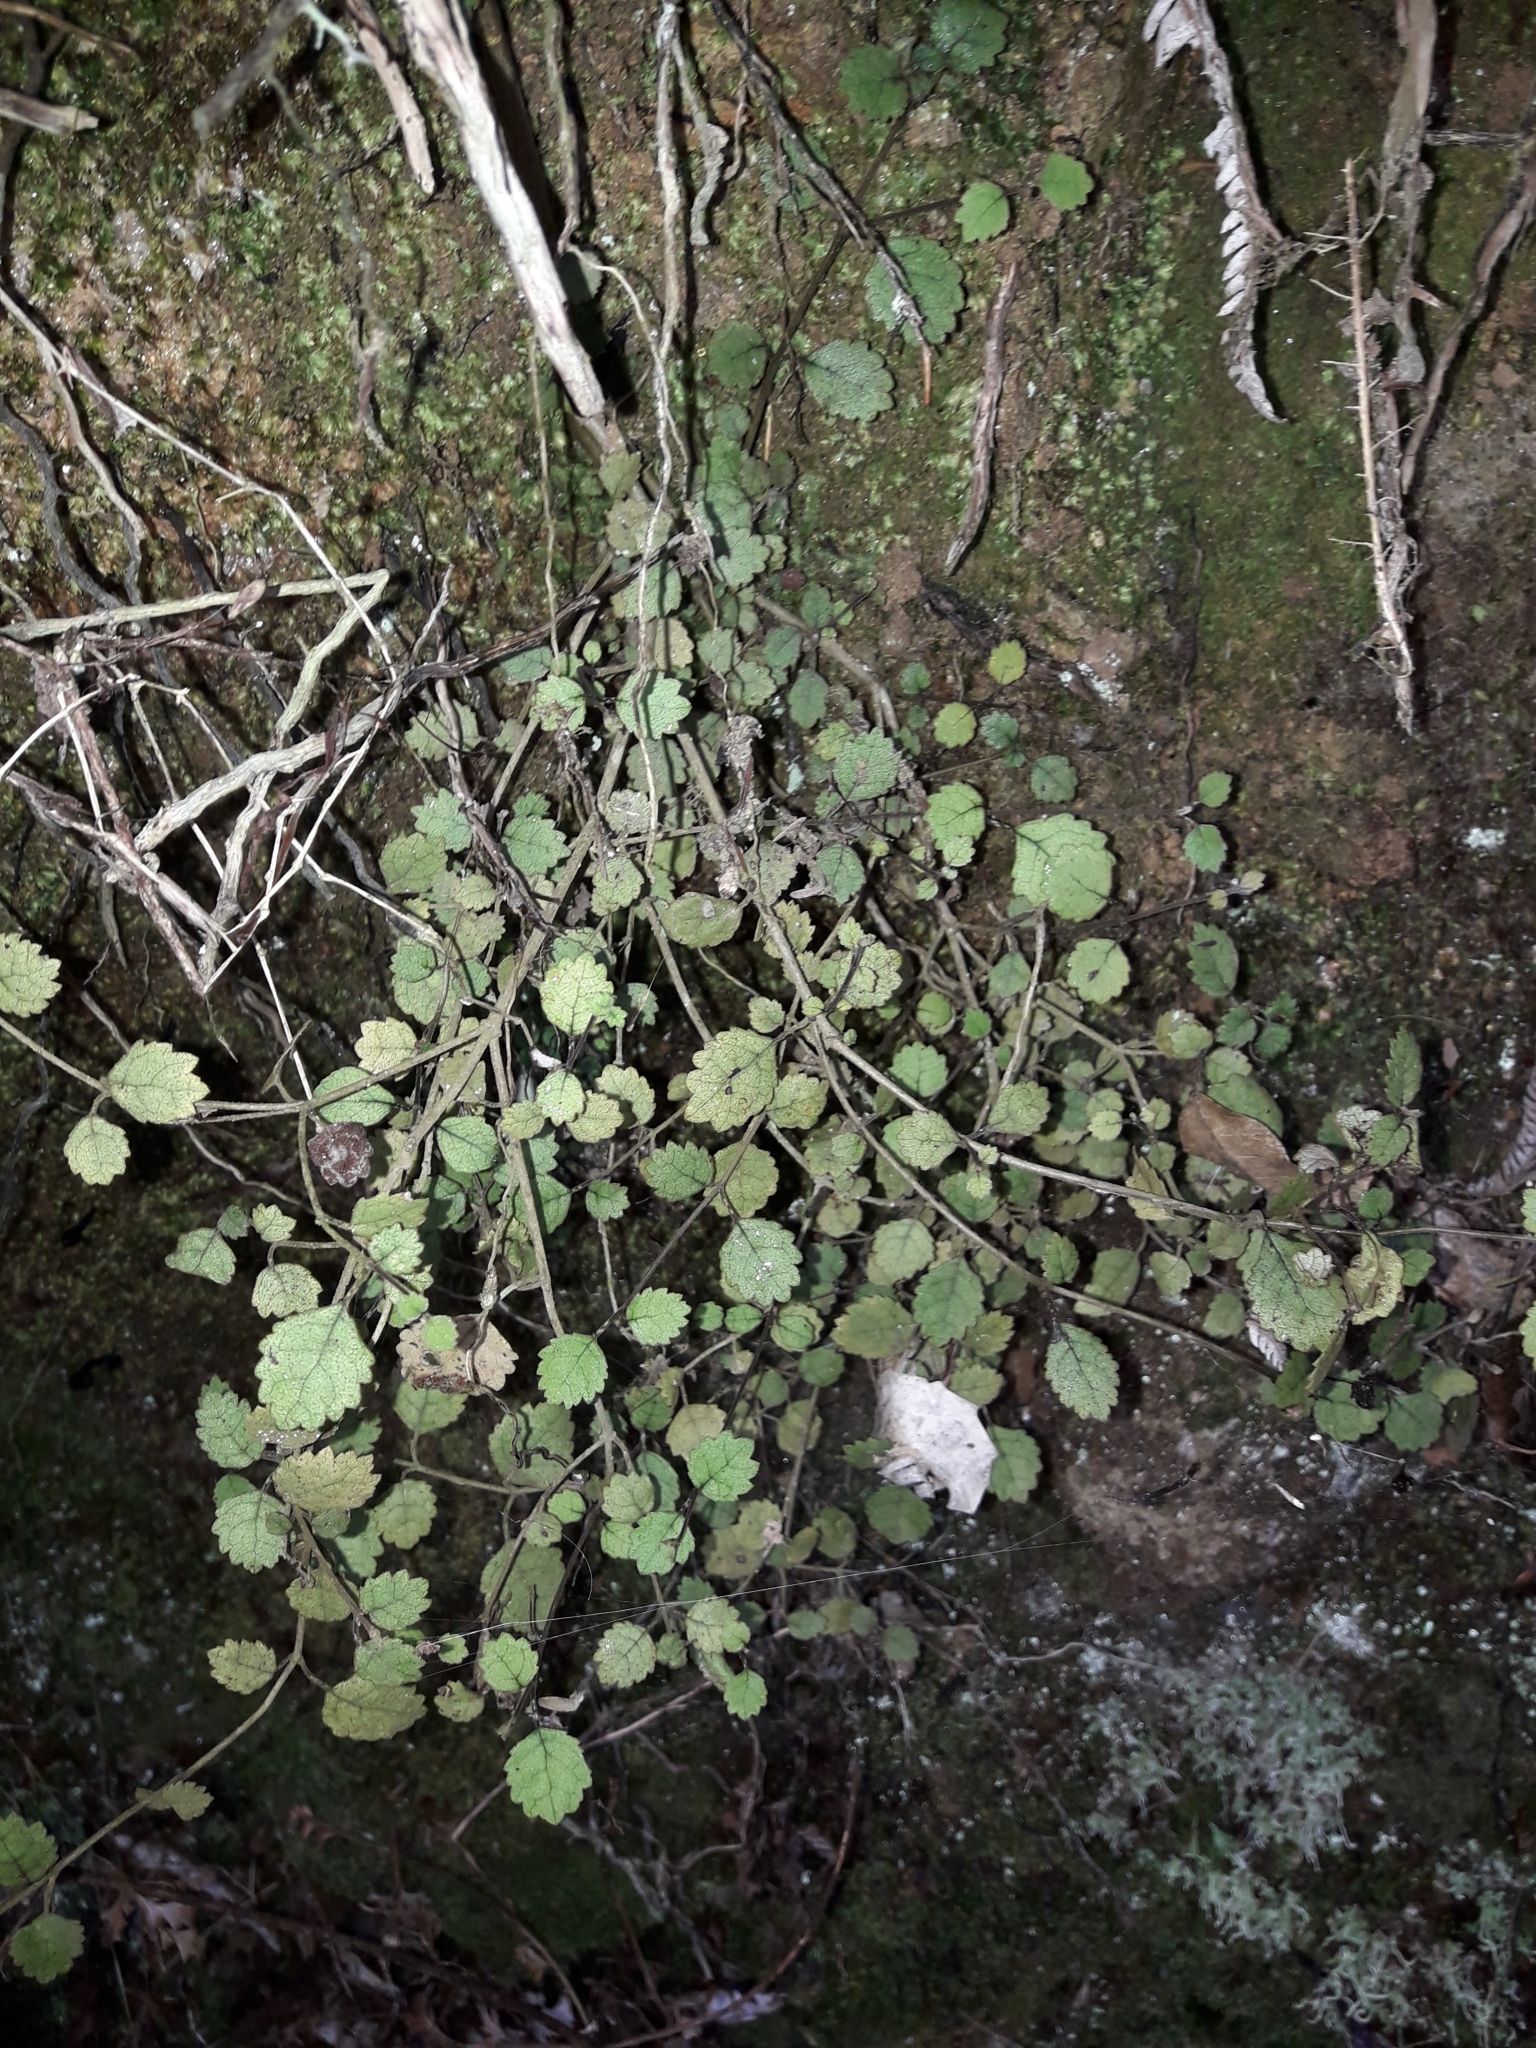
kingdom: Plantae
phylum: Tracheophyta
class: Magnoliopsida
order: Lamiales
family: Gesneriaceae
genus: Rhabdothamnus
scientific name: Rhabdothamnus solandri
